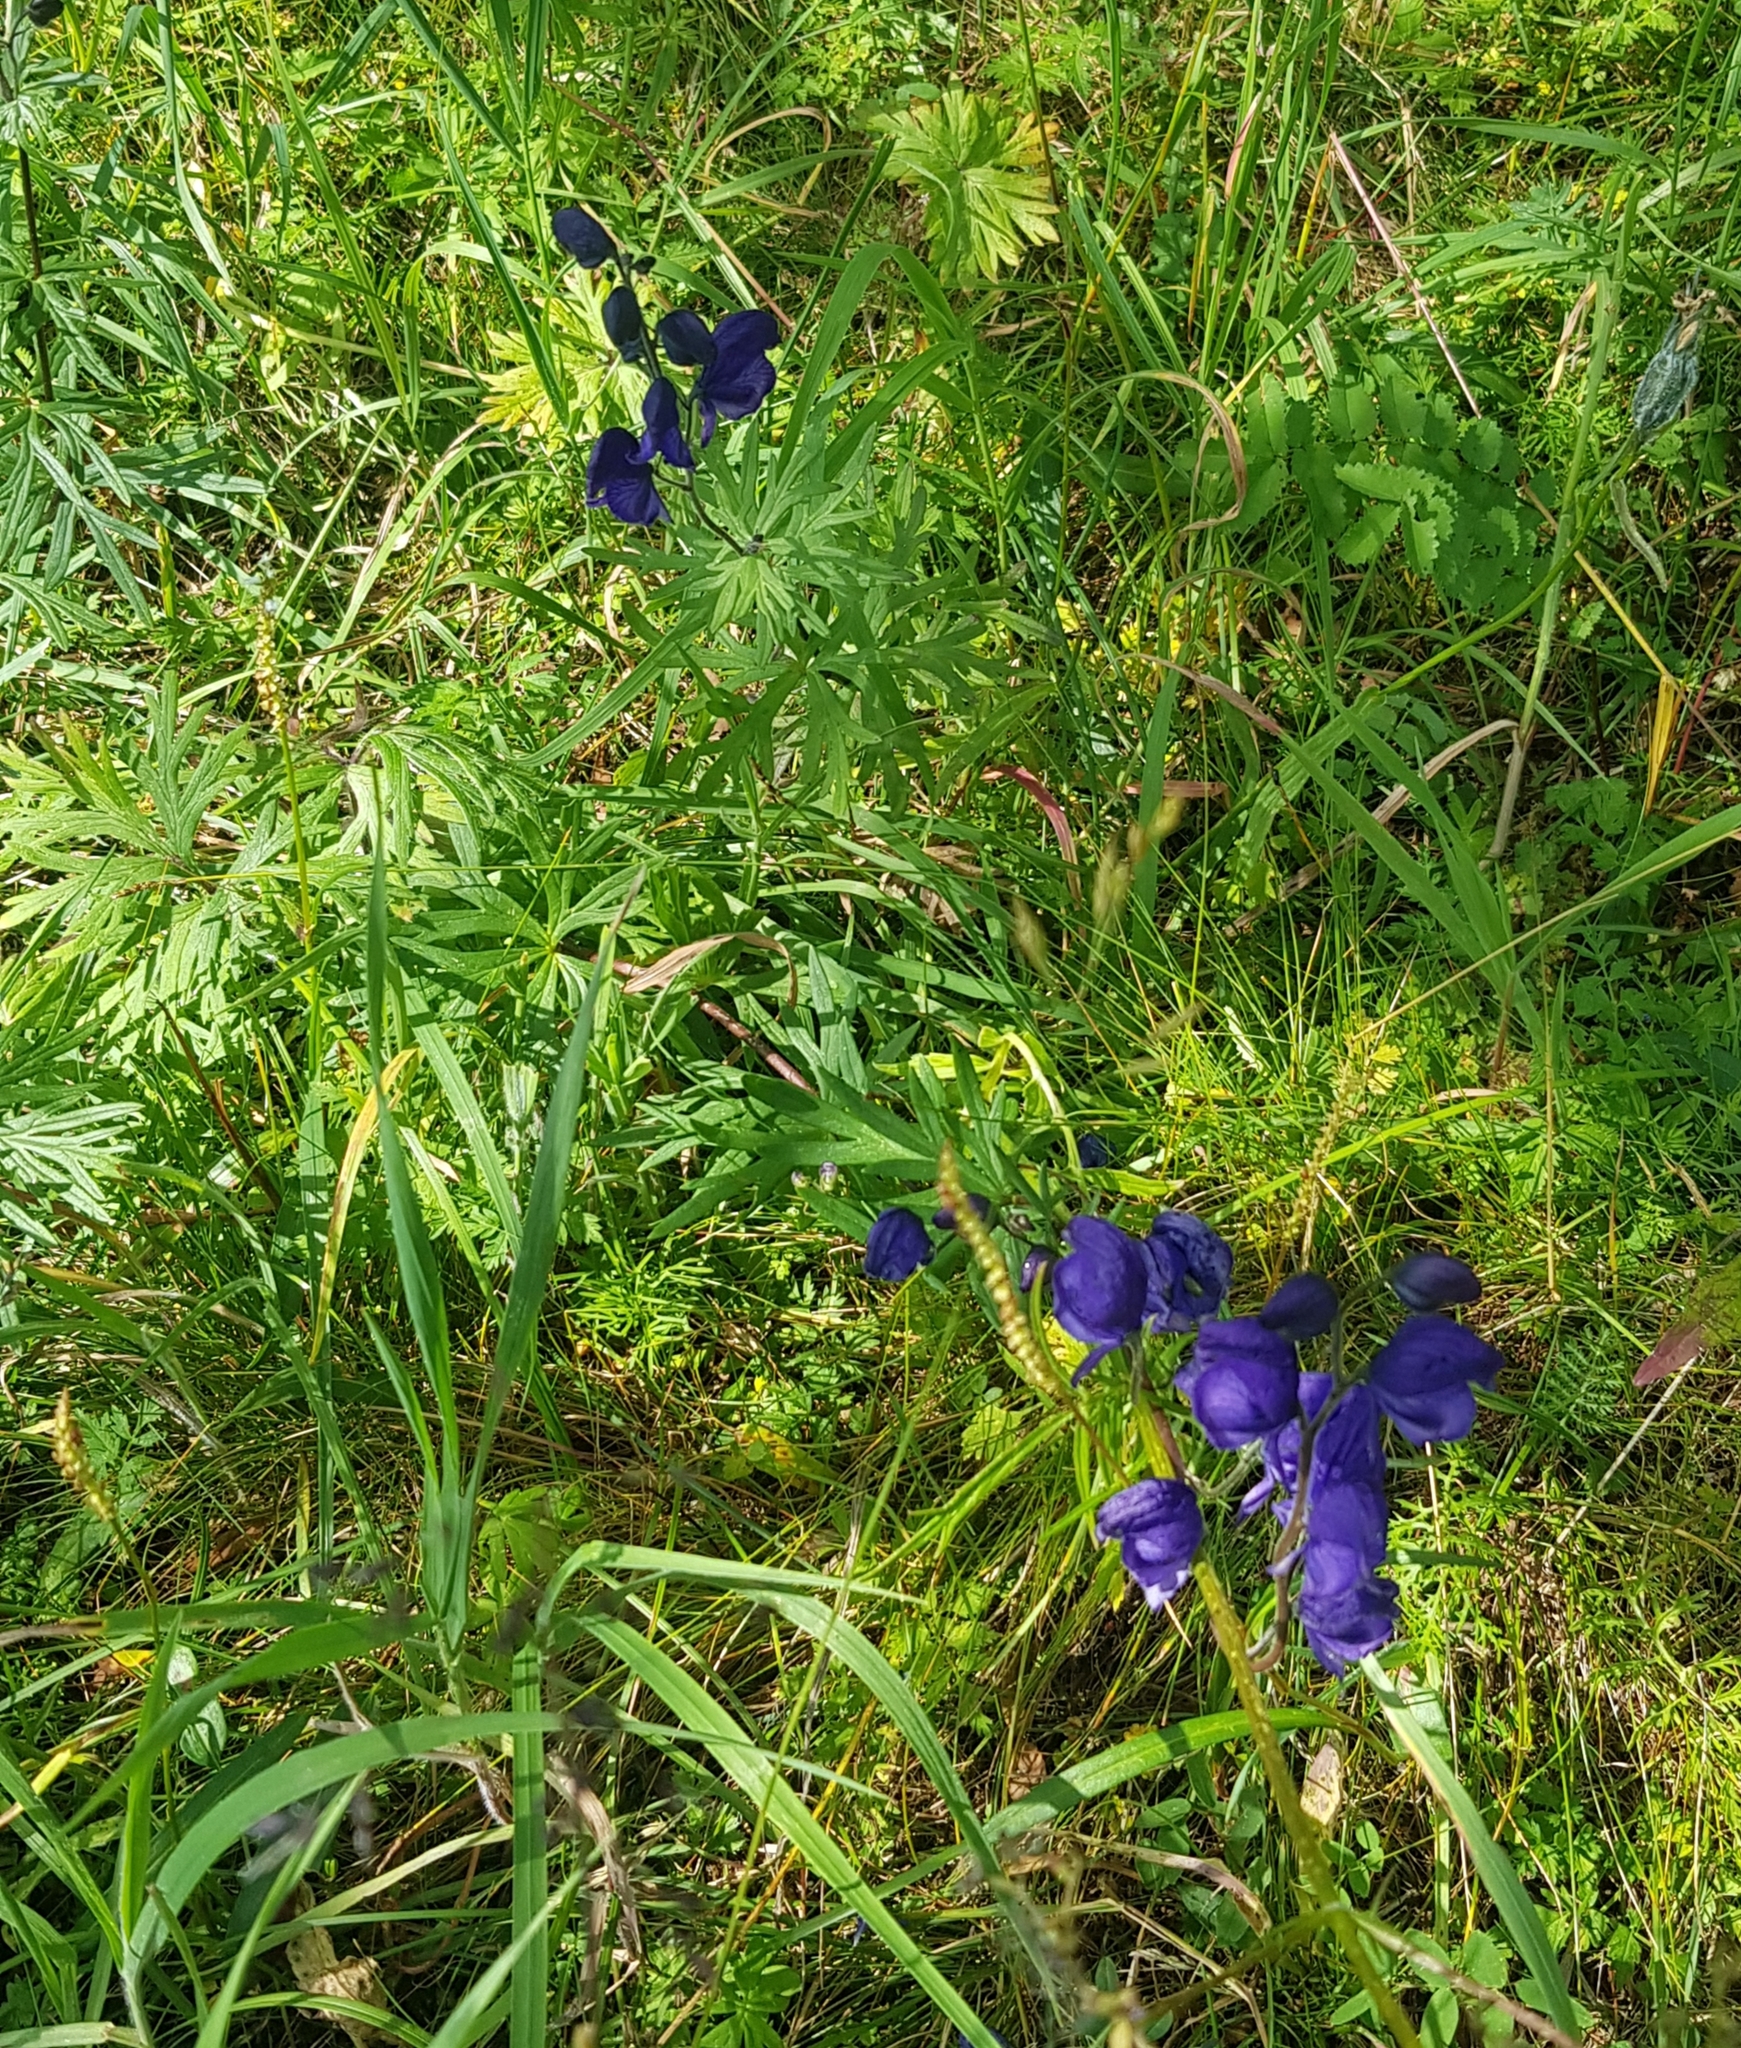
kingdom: Plantae
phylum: Tracheophyta
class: Magnoliopsida
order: Ranunculales
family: Ranunculaceae
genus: Aconitum
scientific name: Aconitum baicalense
